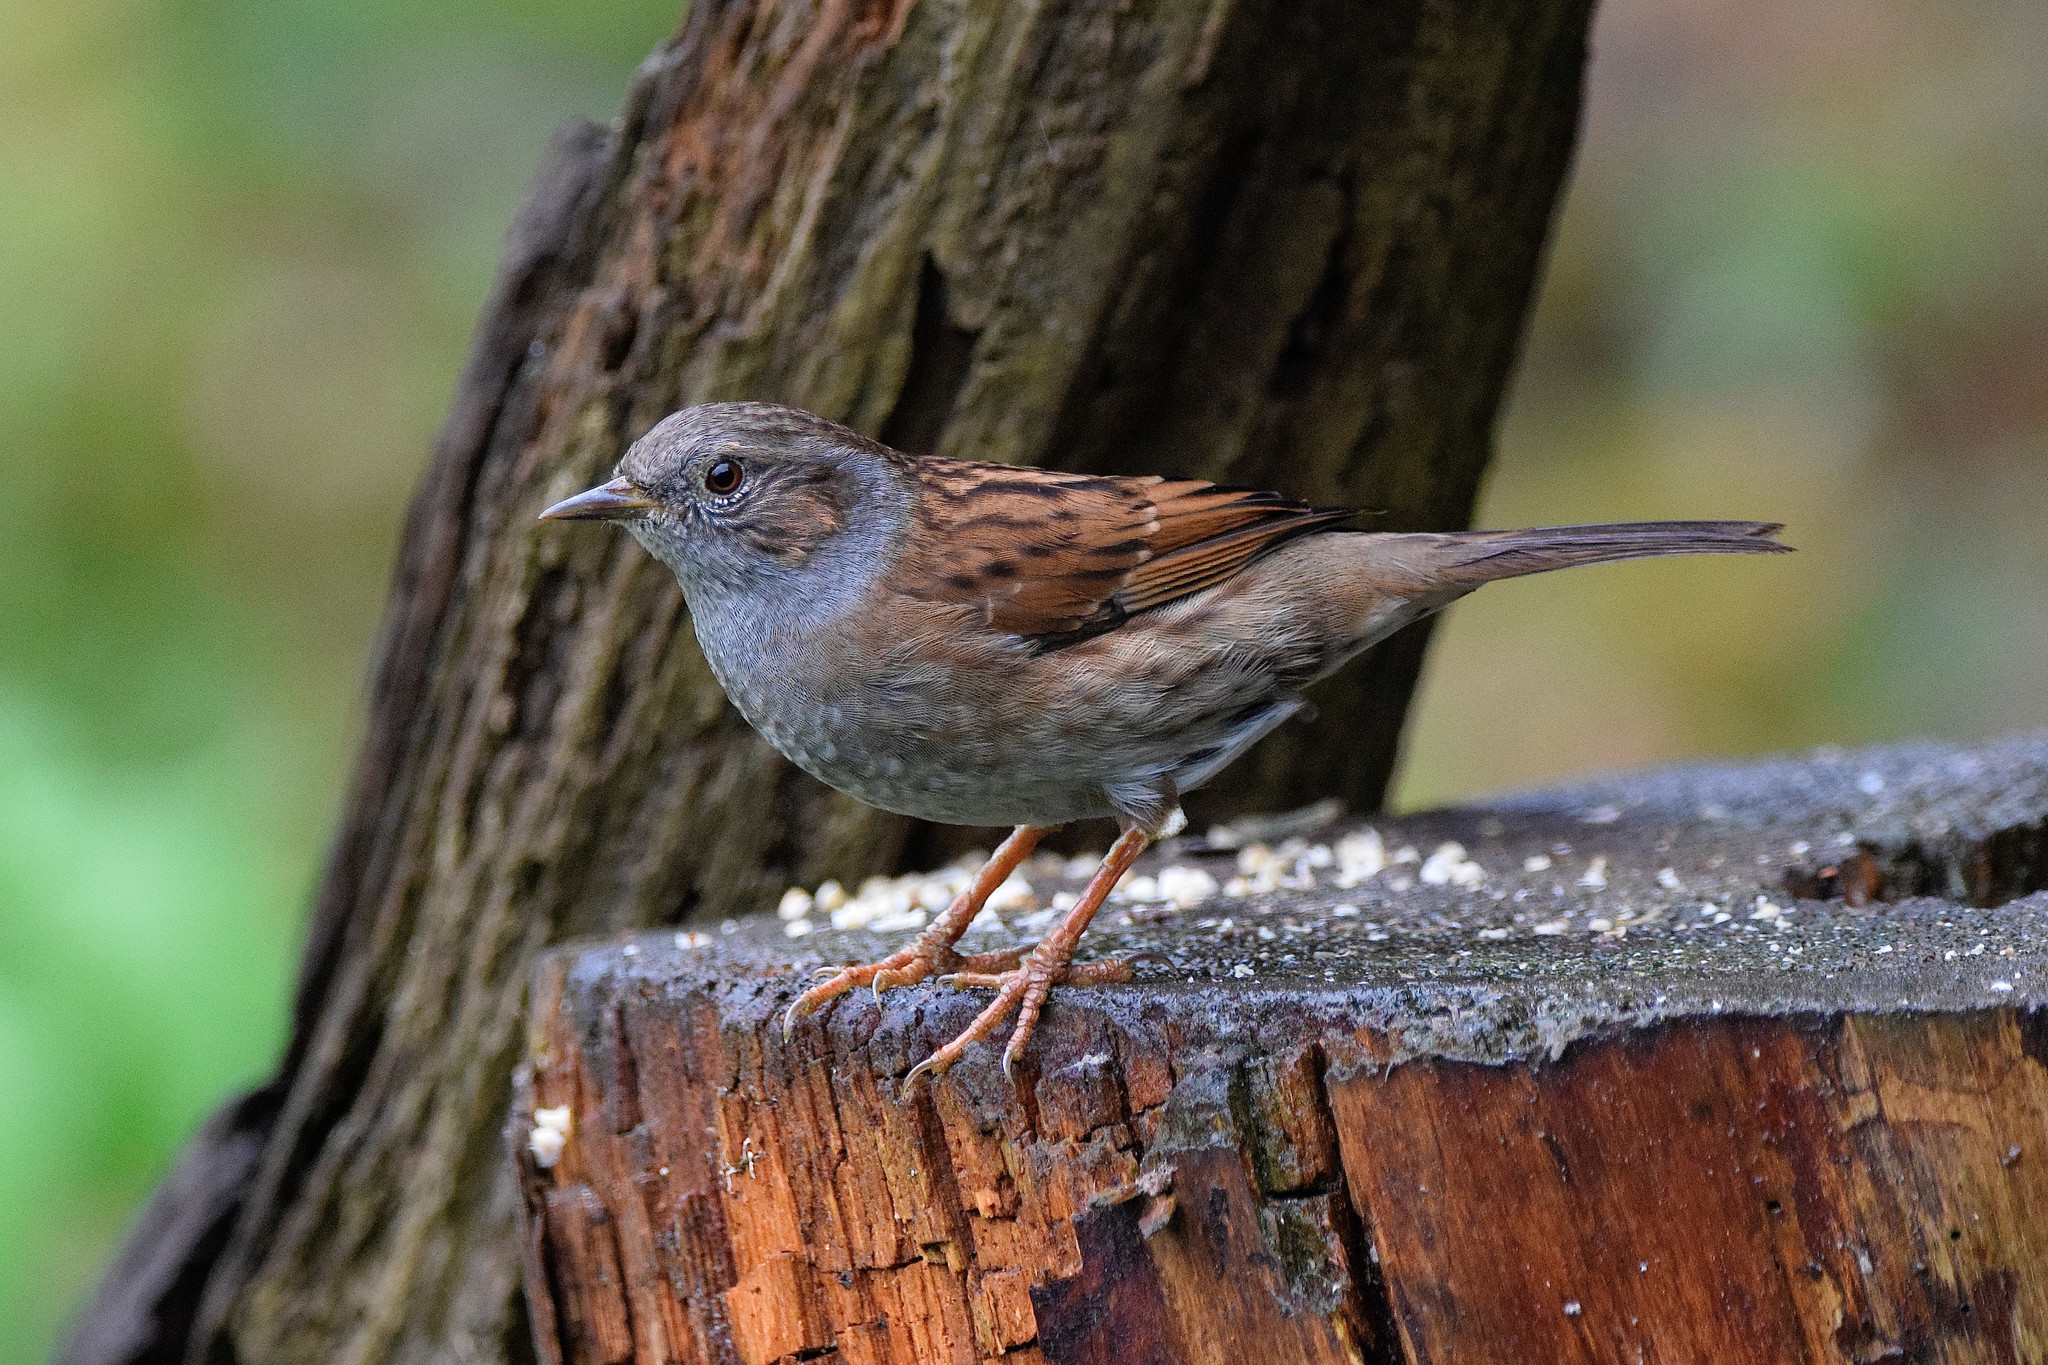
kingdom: Animalia
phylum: Chordata
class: Aves
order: Passeriformes
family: Prunellidae
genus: Prunella
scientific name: Prunella modularis
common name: Dunnock
